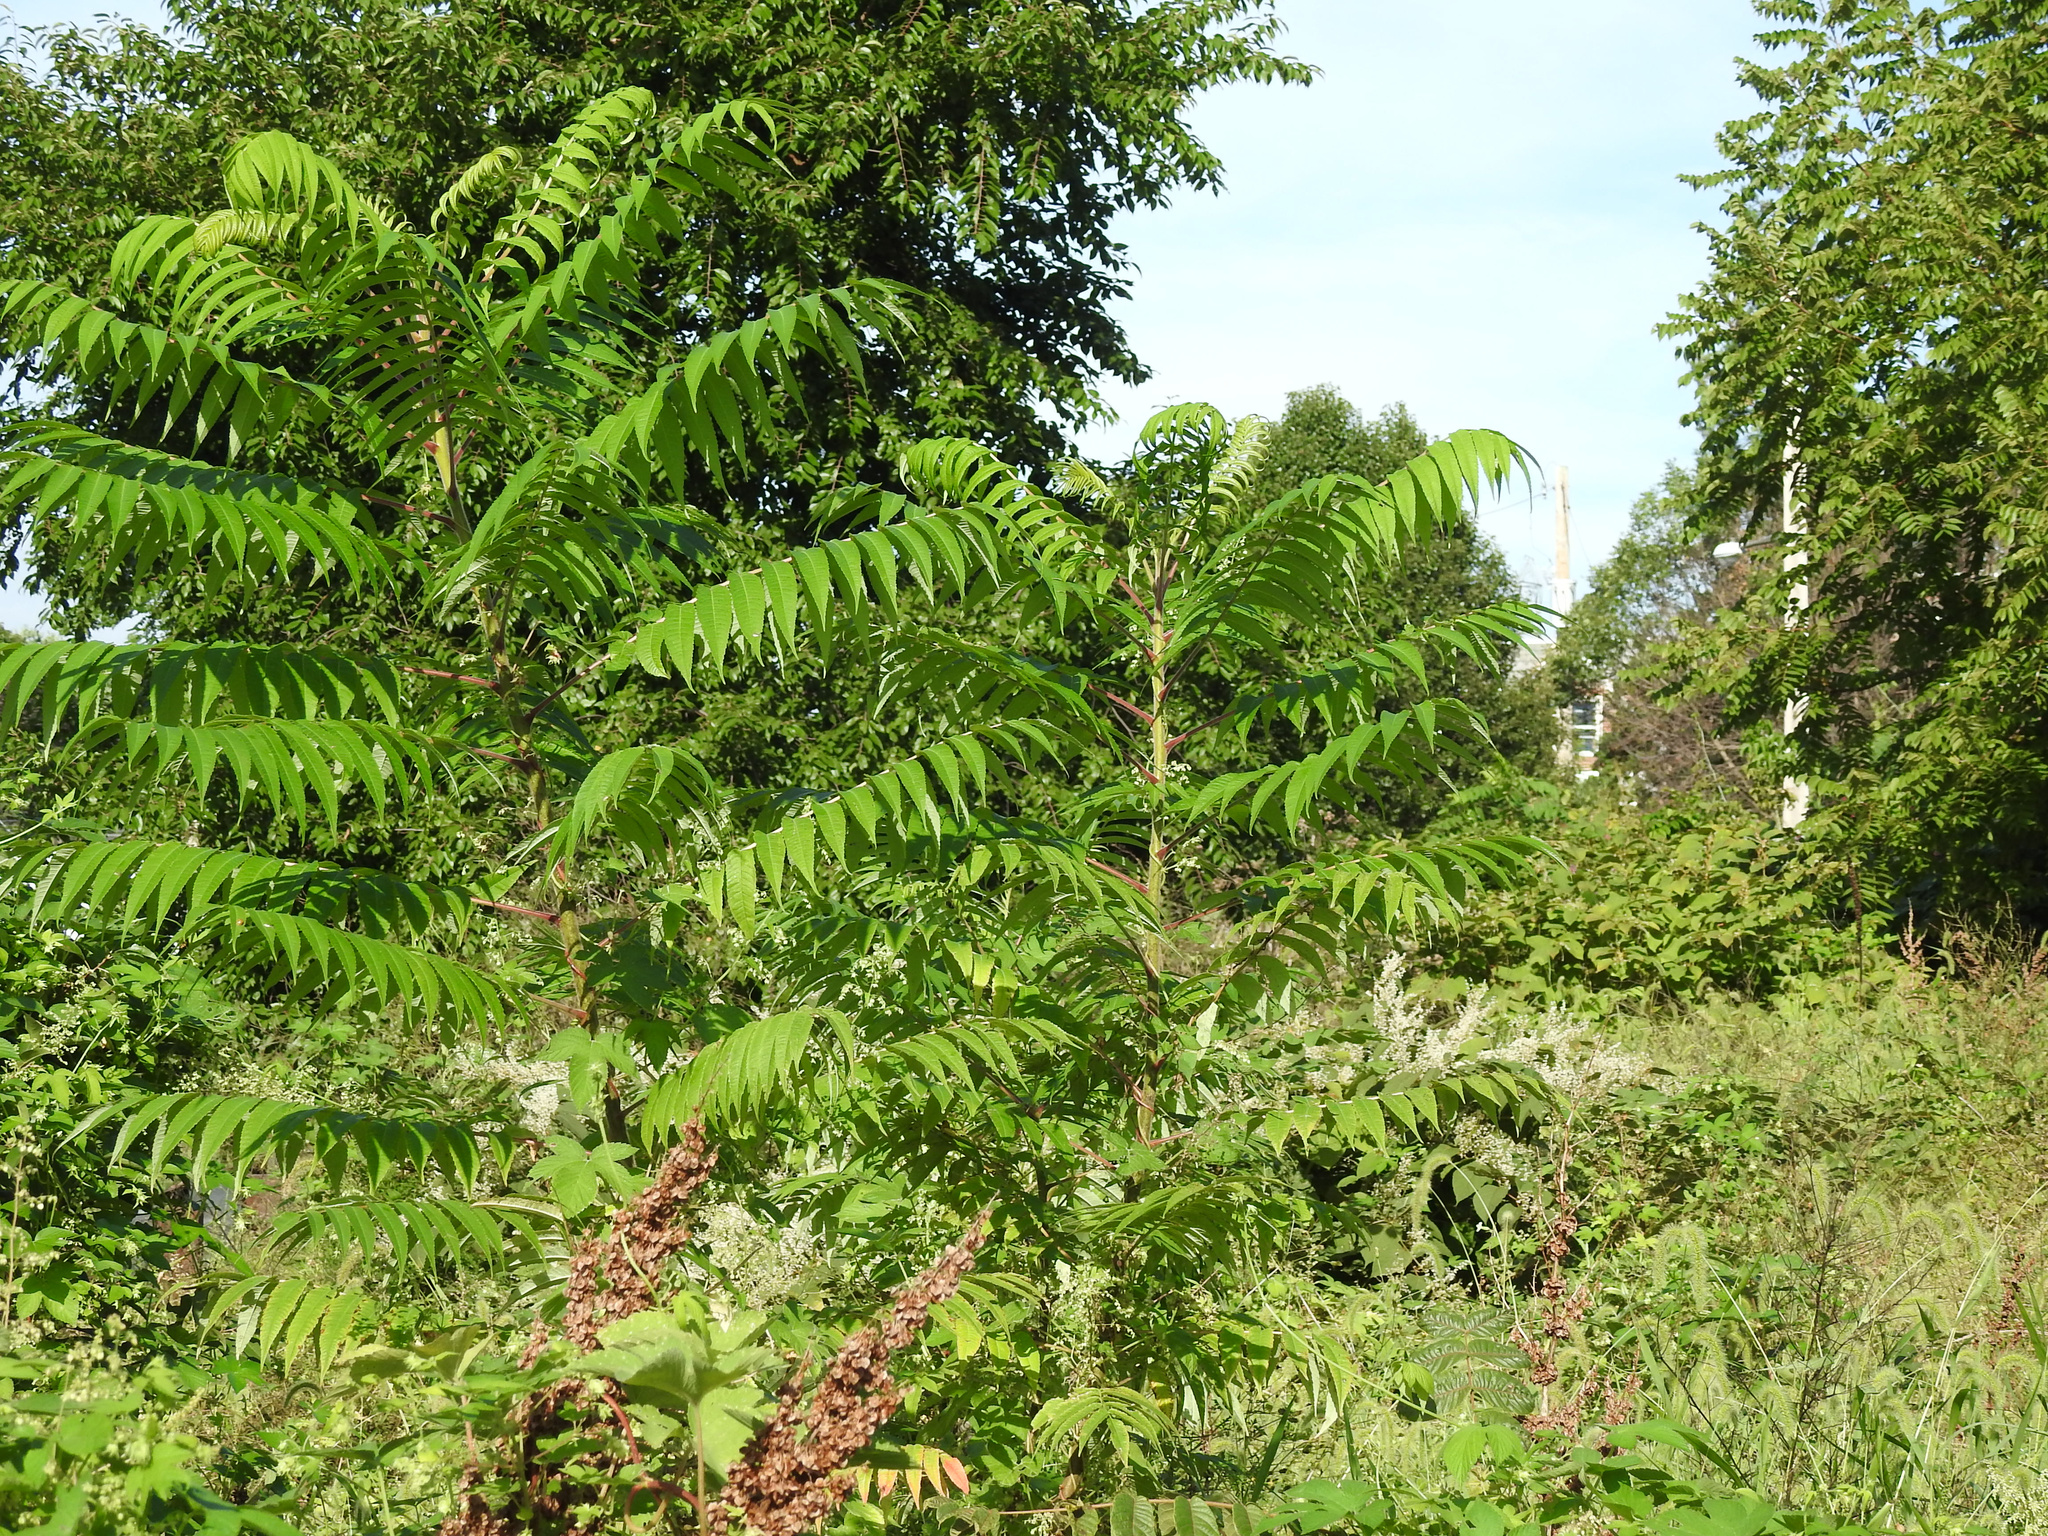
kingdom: Plantae
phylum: Tracheophyta
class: Magnoliopsida
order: Sapindales
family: Anacardiaceae
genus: Rhus
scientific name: Rhus typhina
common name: Staghorn sumac
